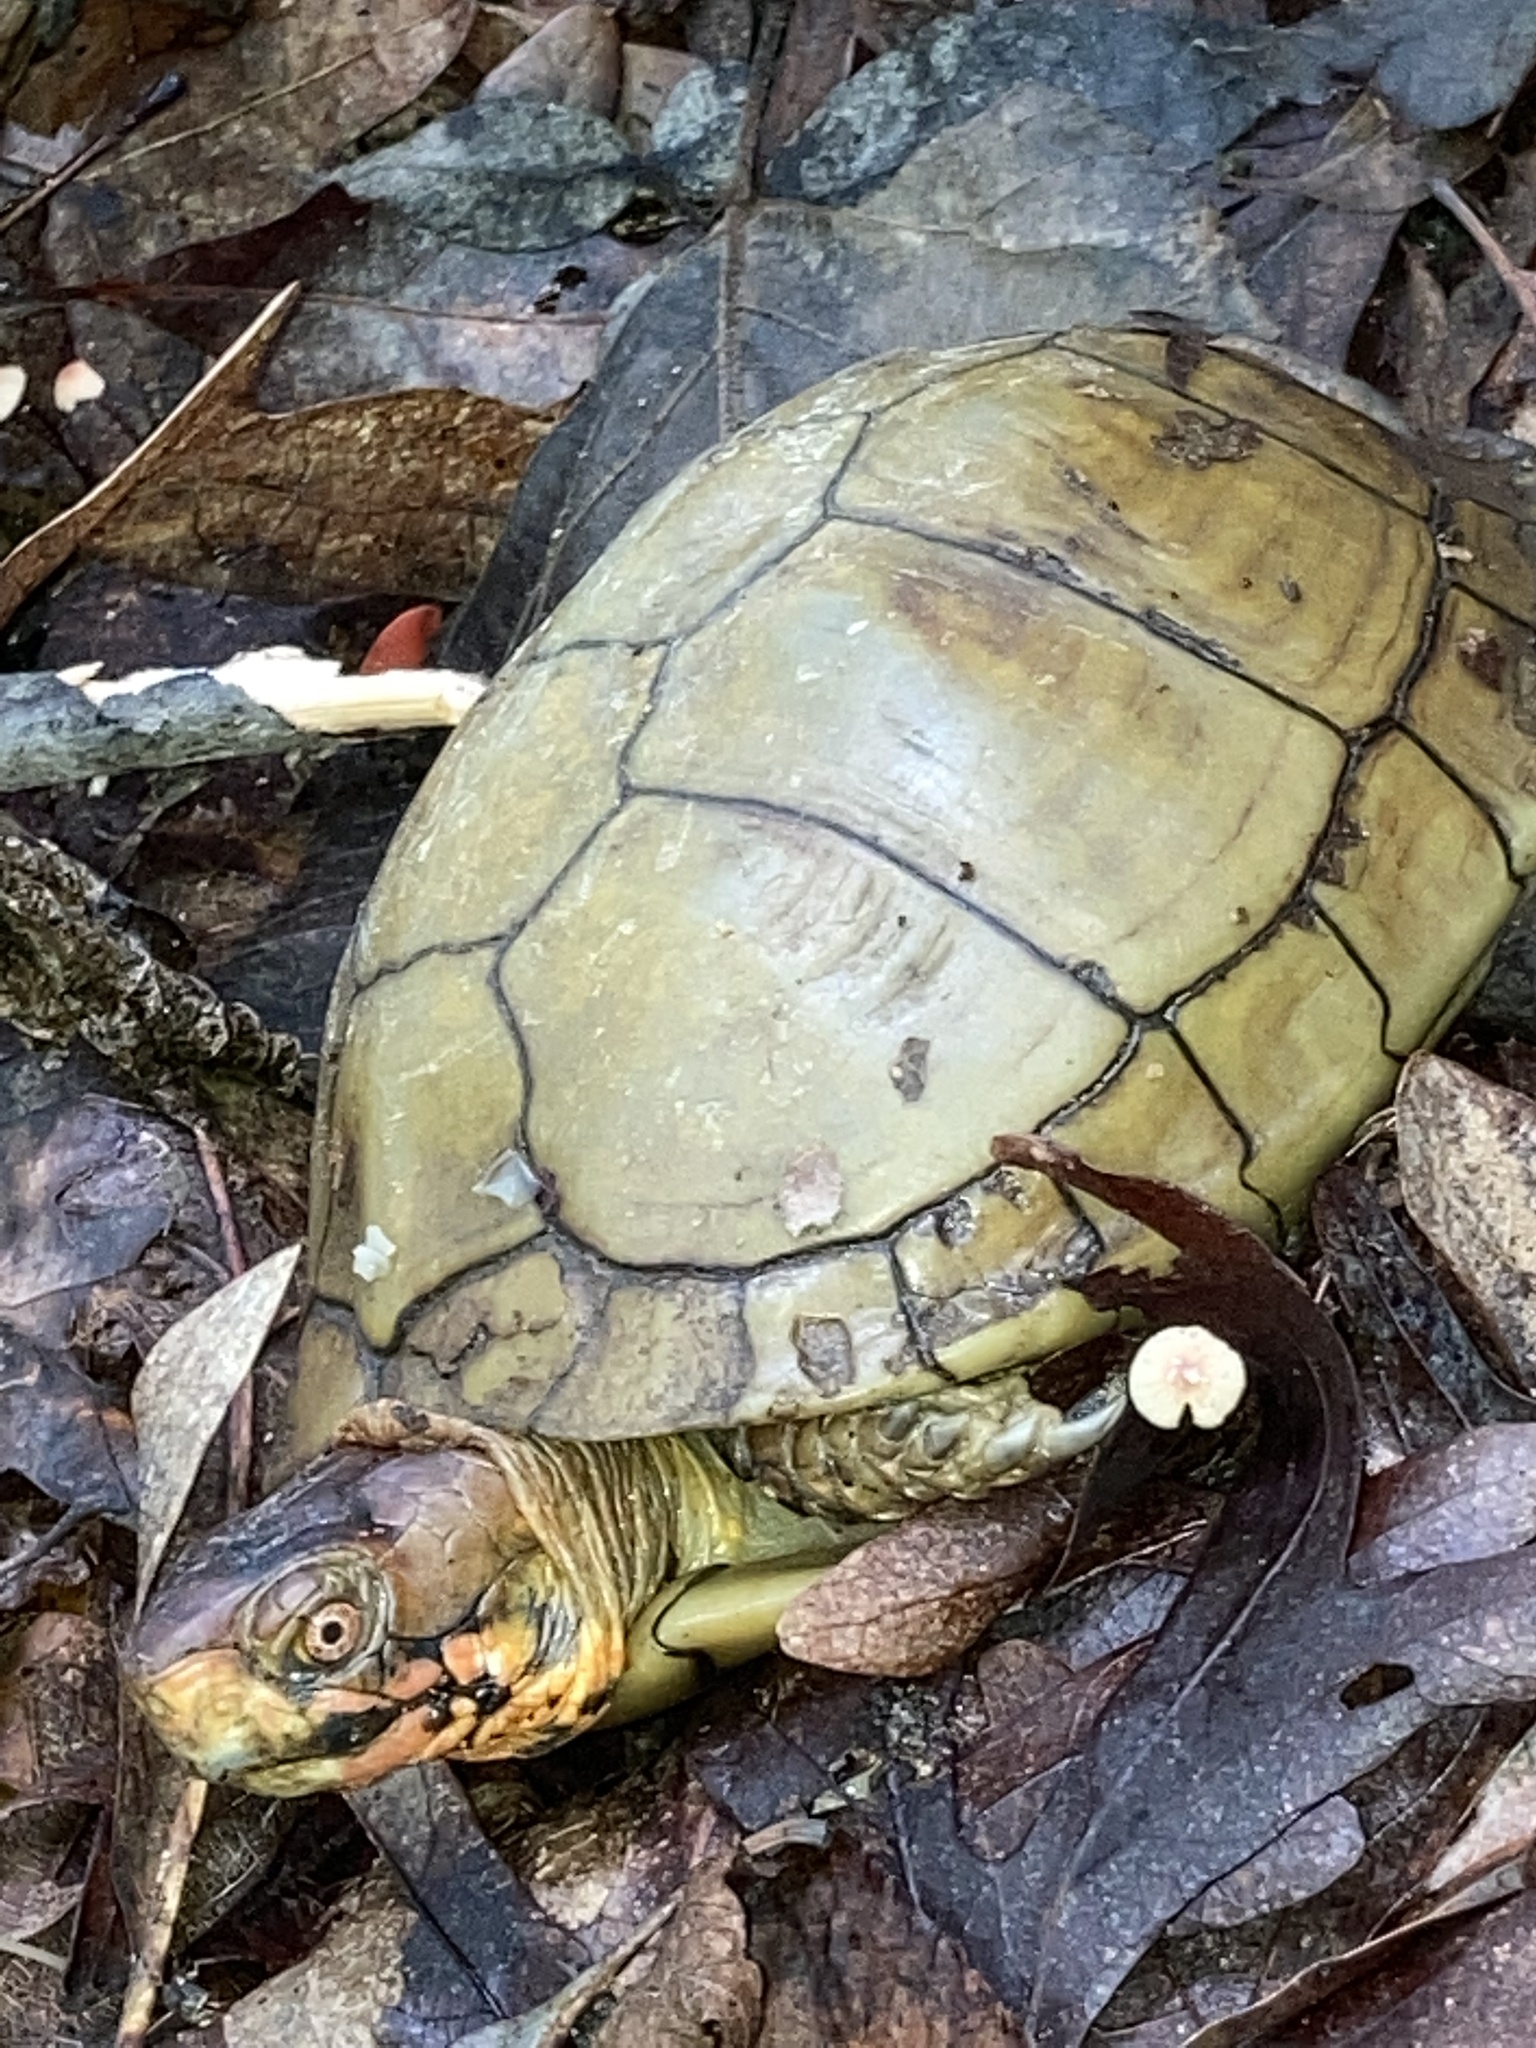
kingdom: Animalia
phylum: Chordata
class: Testudines
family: Emydidae
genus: Terrapene
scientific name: Terrapene carolina
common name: Common box turtle
